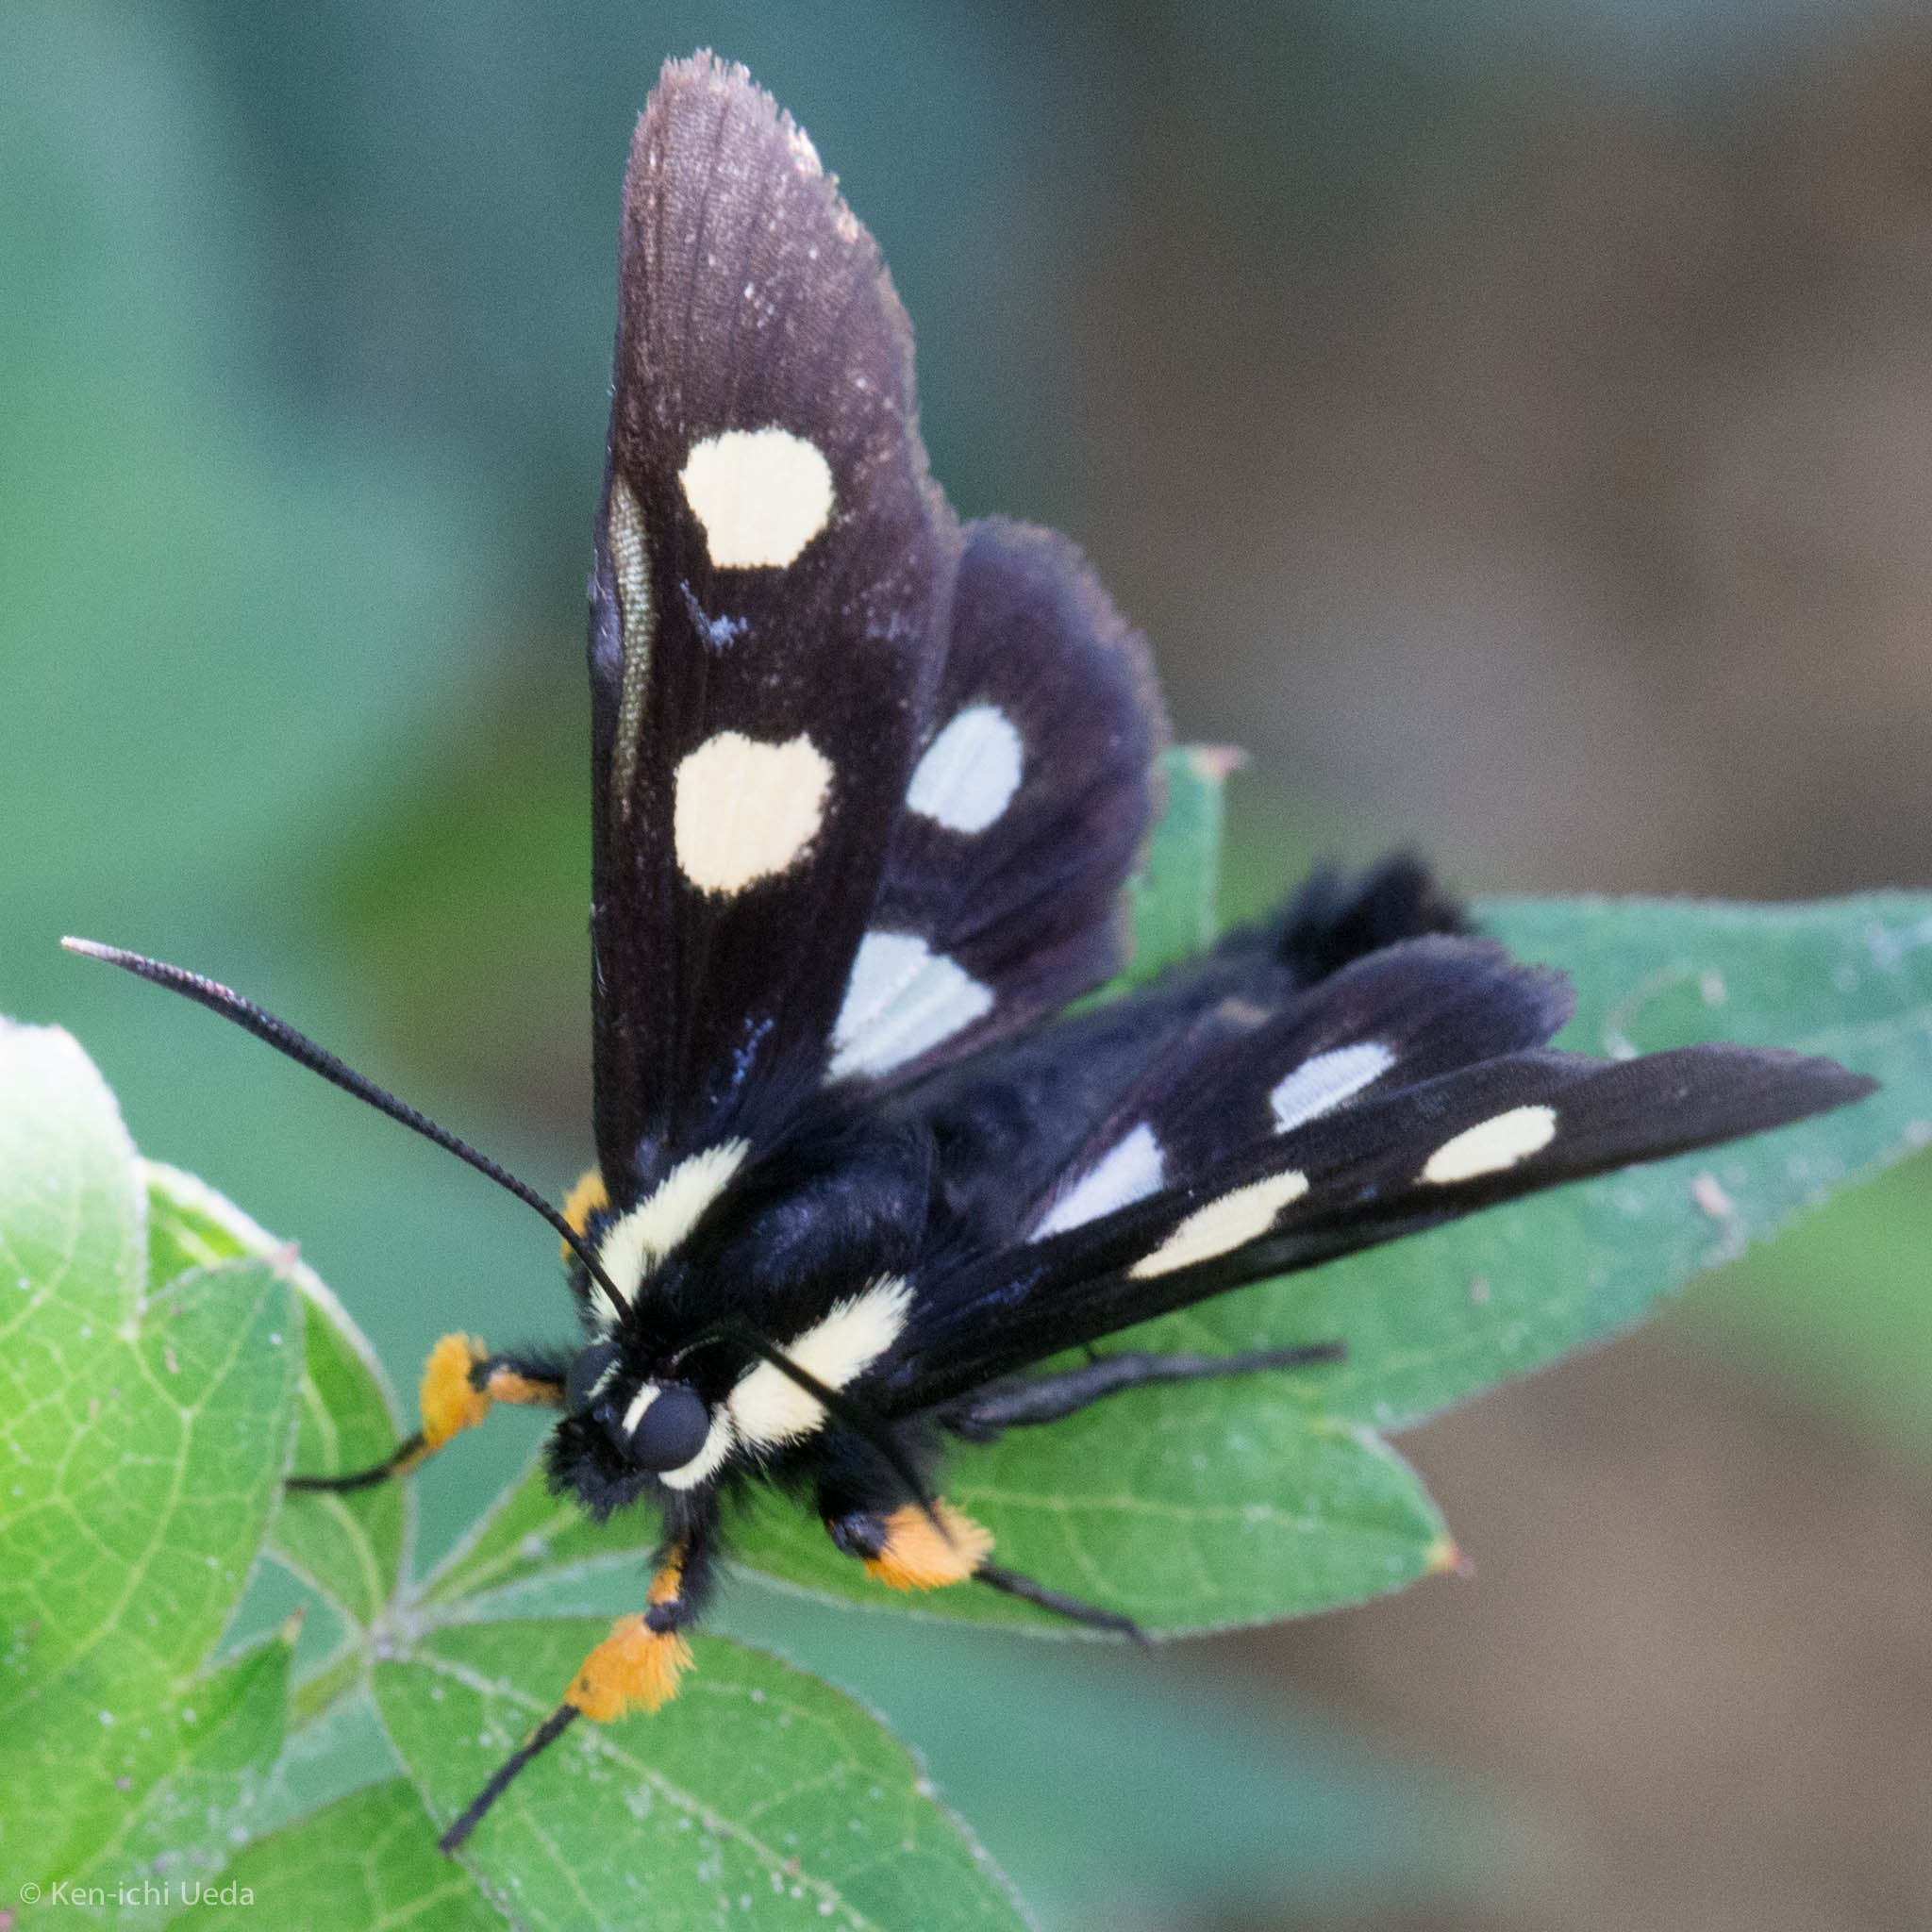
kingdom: Animalia
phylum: Arthropoda
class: Insecta
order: Lepidoptera
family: Noctuidae
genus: Alypia
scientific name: Alypia disparata
